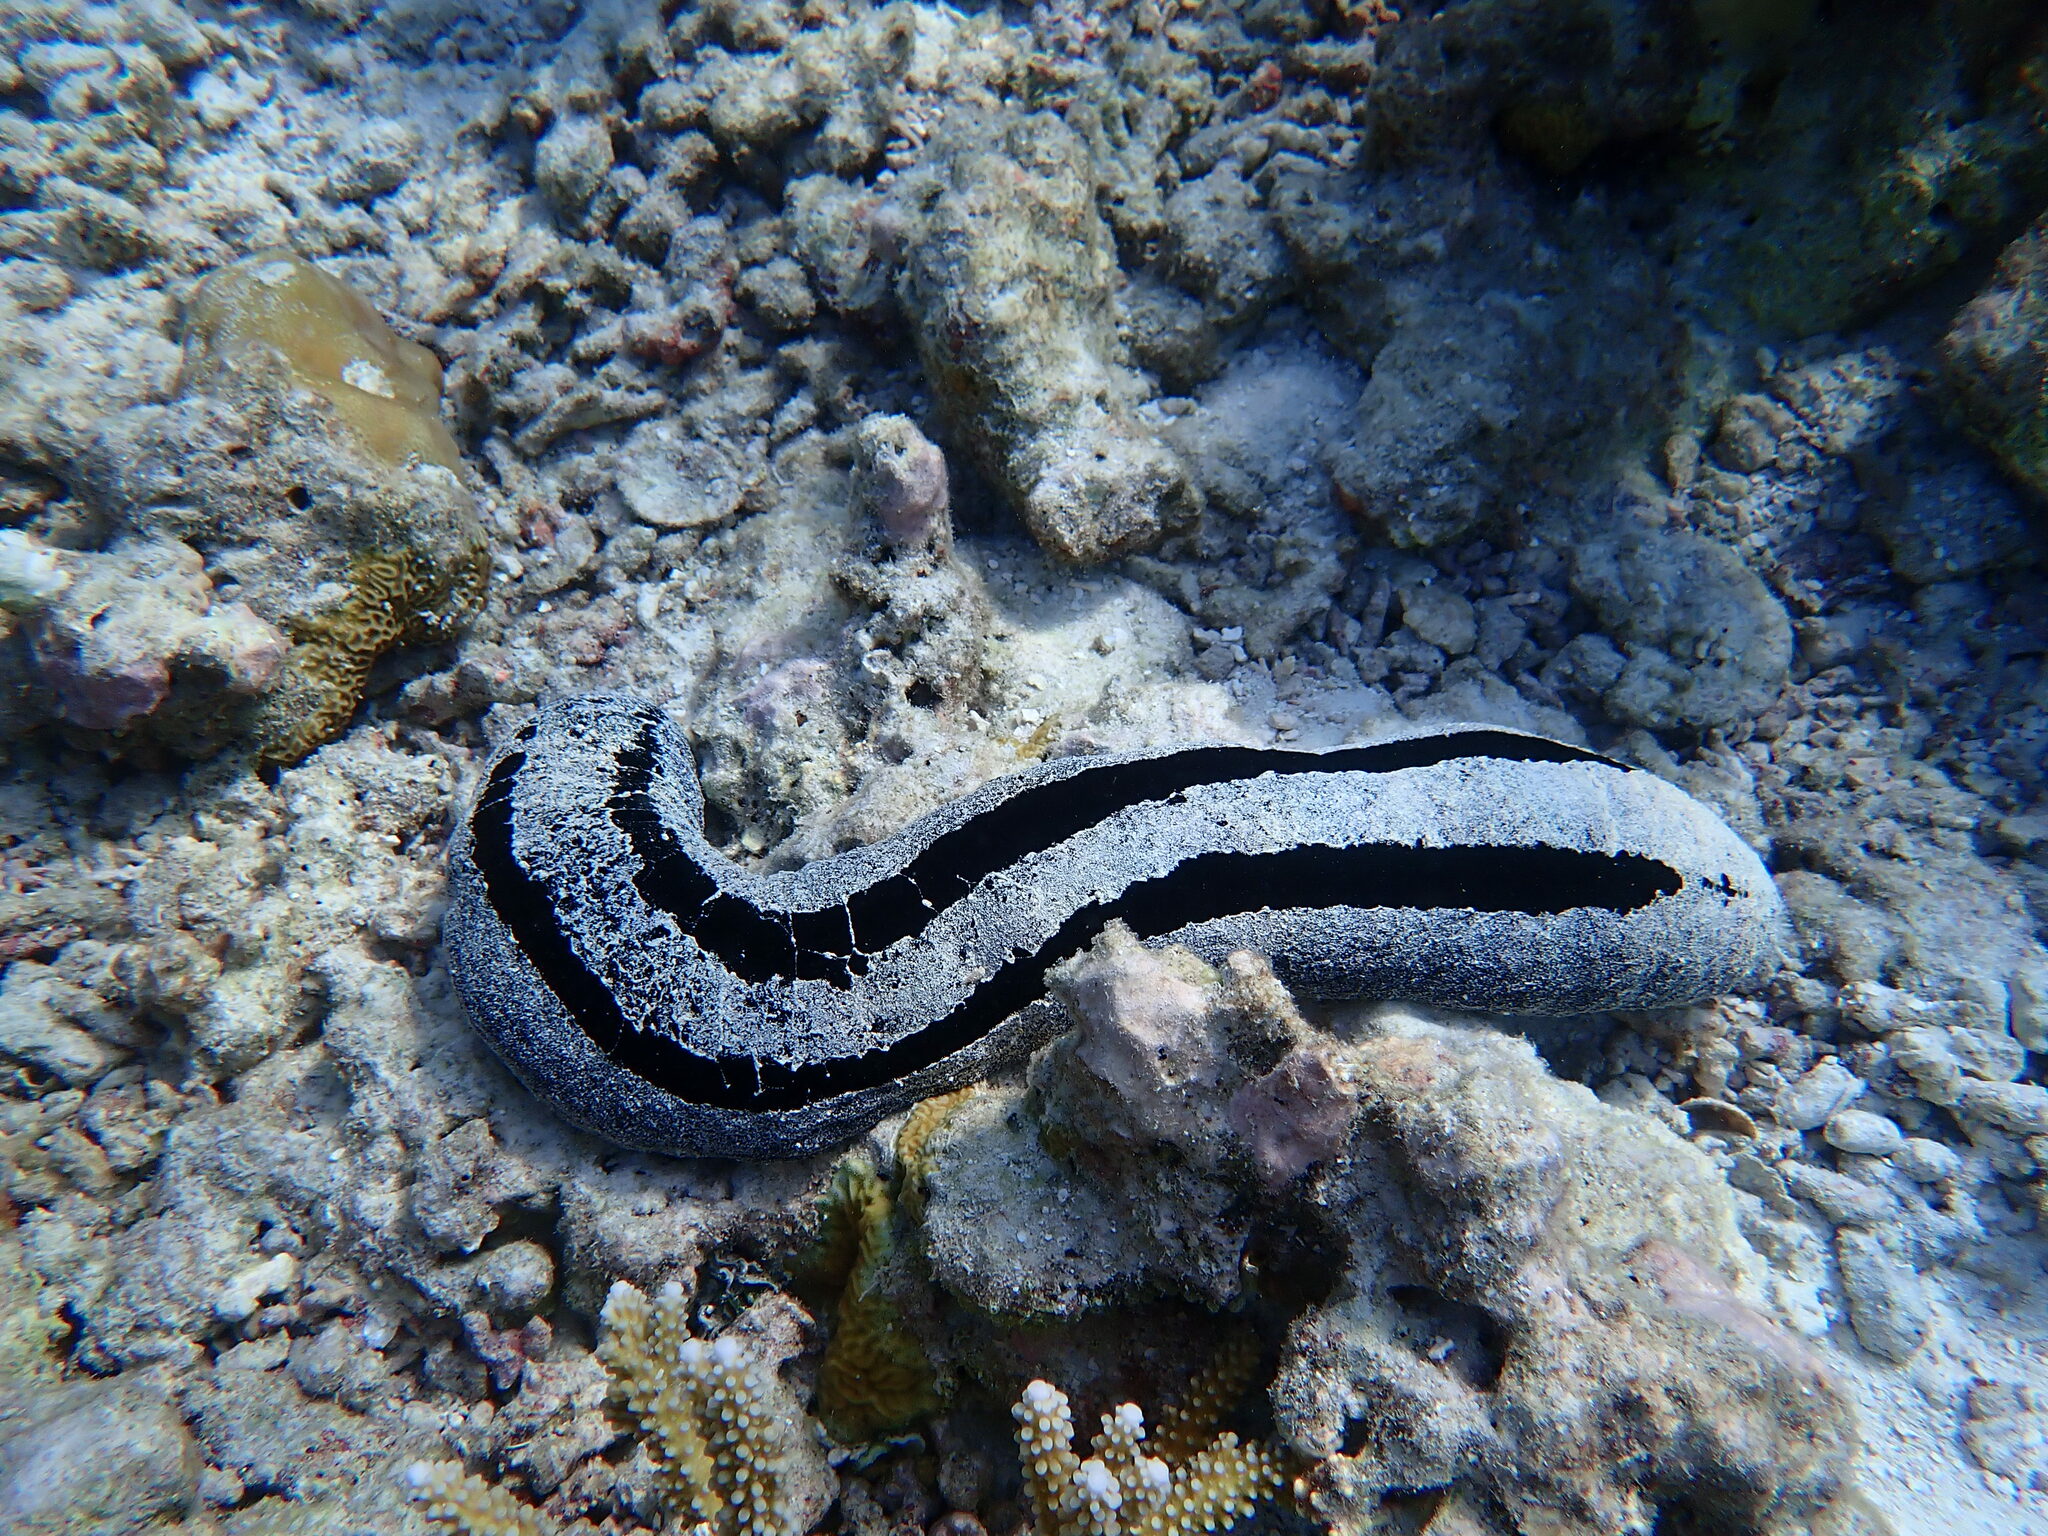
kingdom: Animalia
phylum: Echinodermata
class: Holothuroidea
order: Holothuriida
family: Holothuriidae
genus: Holothuria
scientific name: Holothuria atra
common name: Lollyfish
